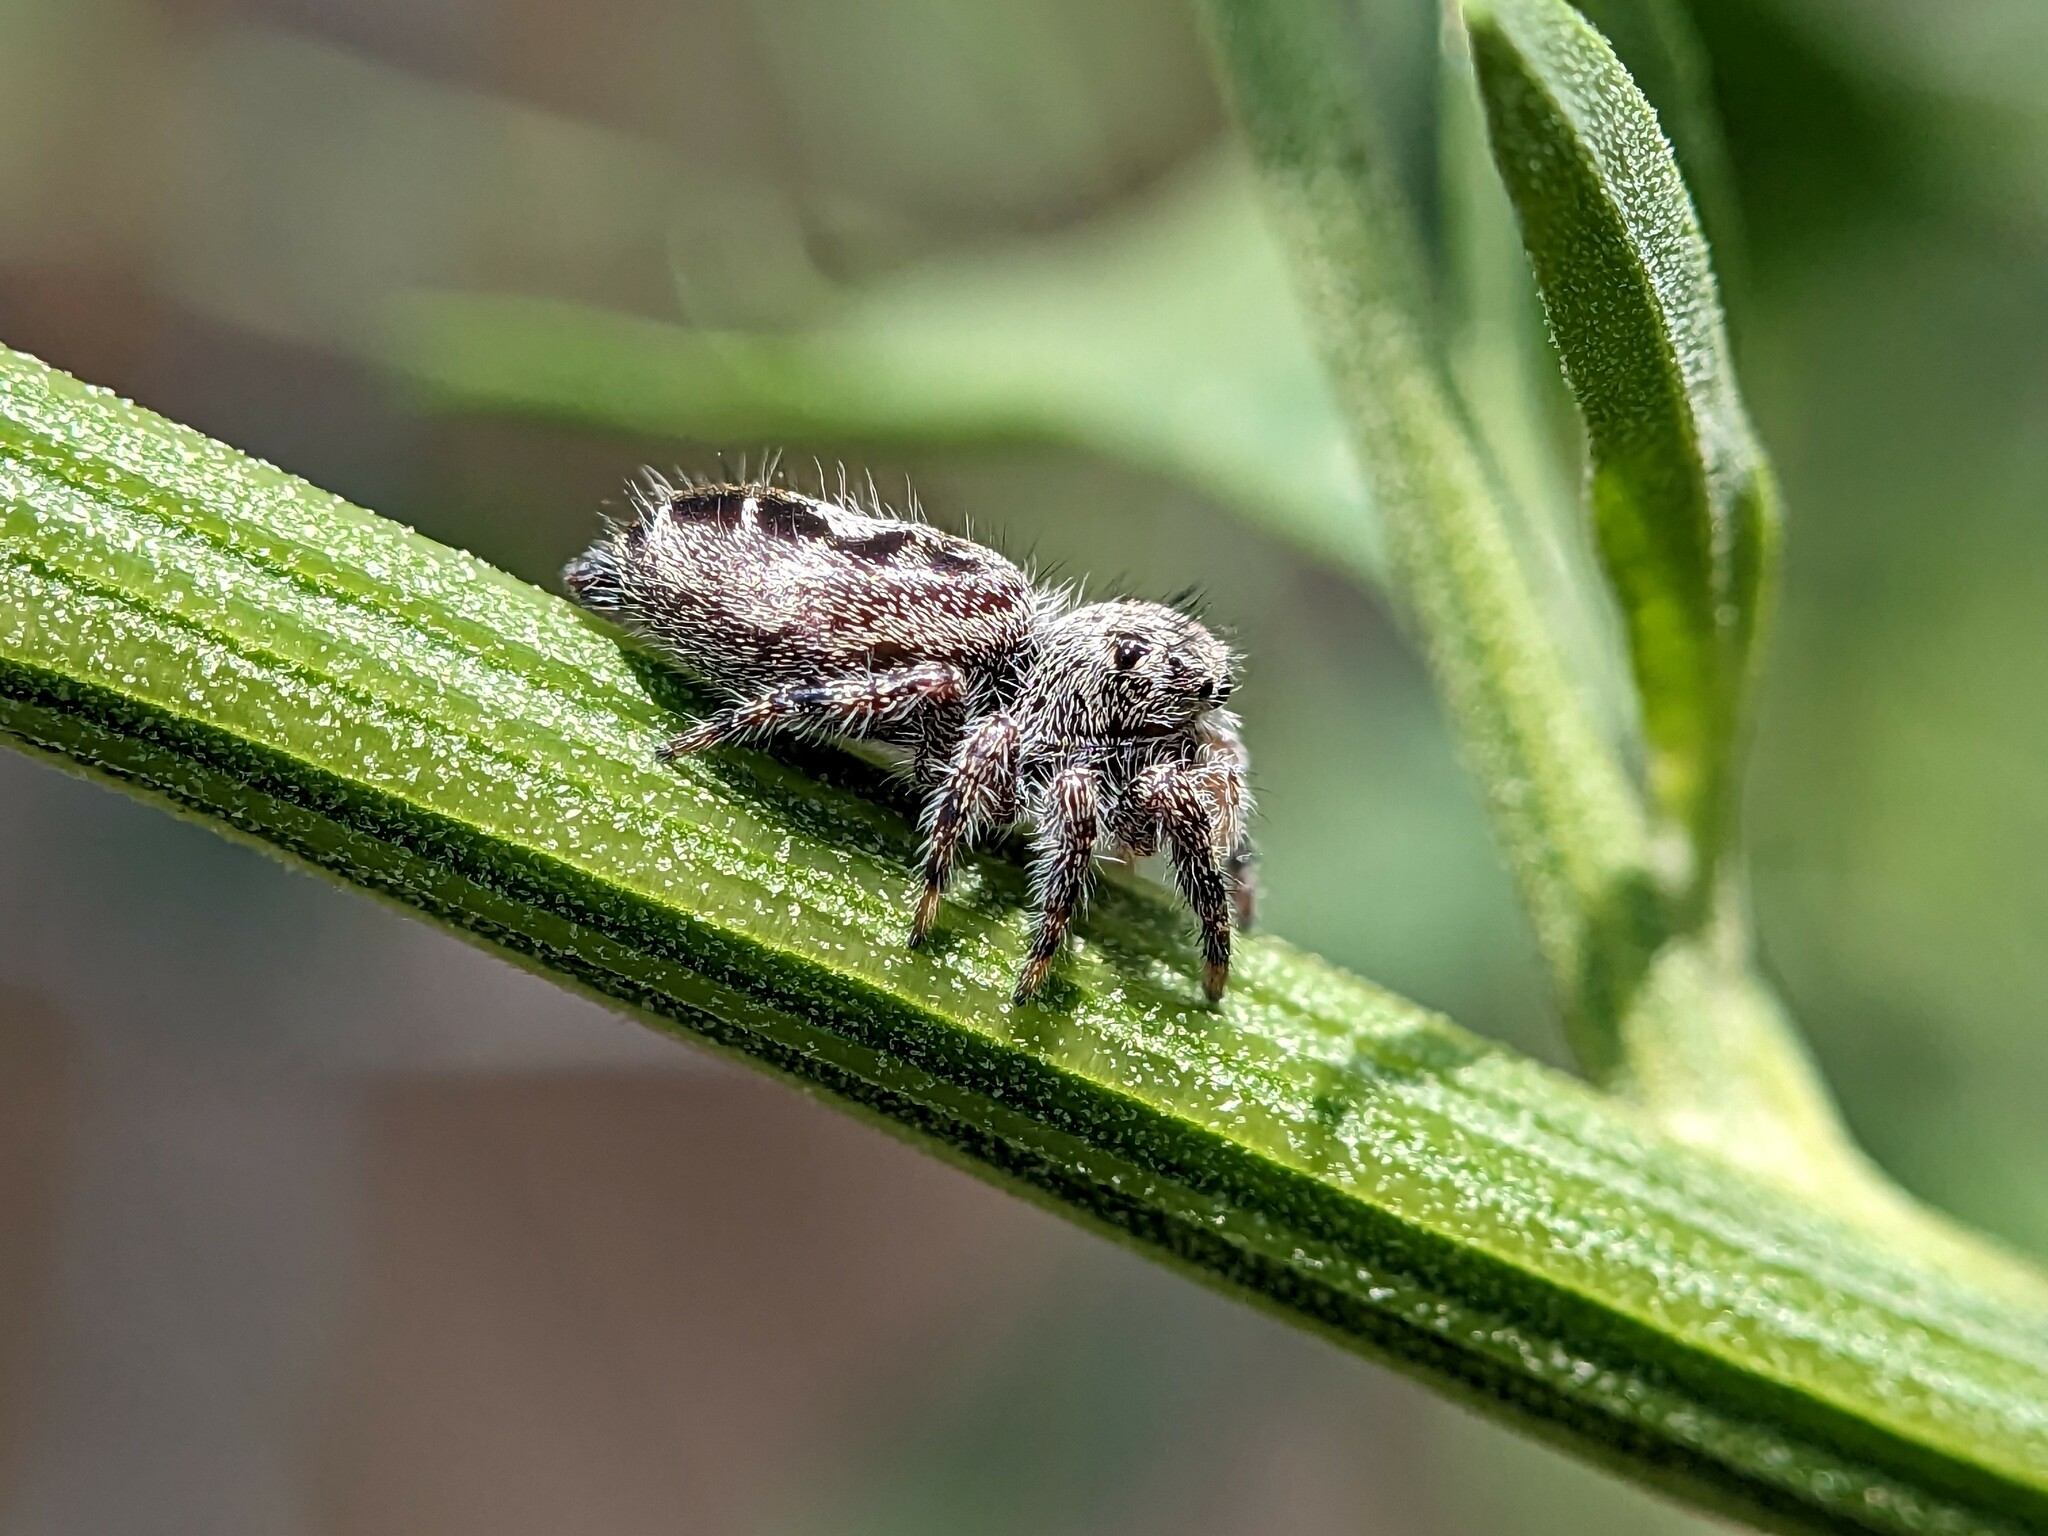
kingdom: Animalia
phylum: Arthropoda
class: Arachnida
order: Araneae
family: Salticidae
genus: Phidippus
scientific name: Phidippus putnami
